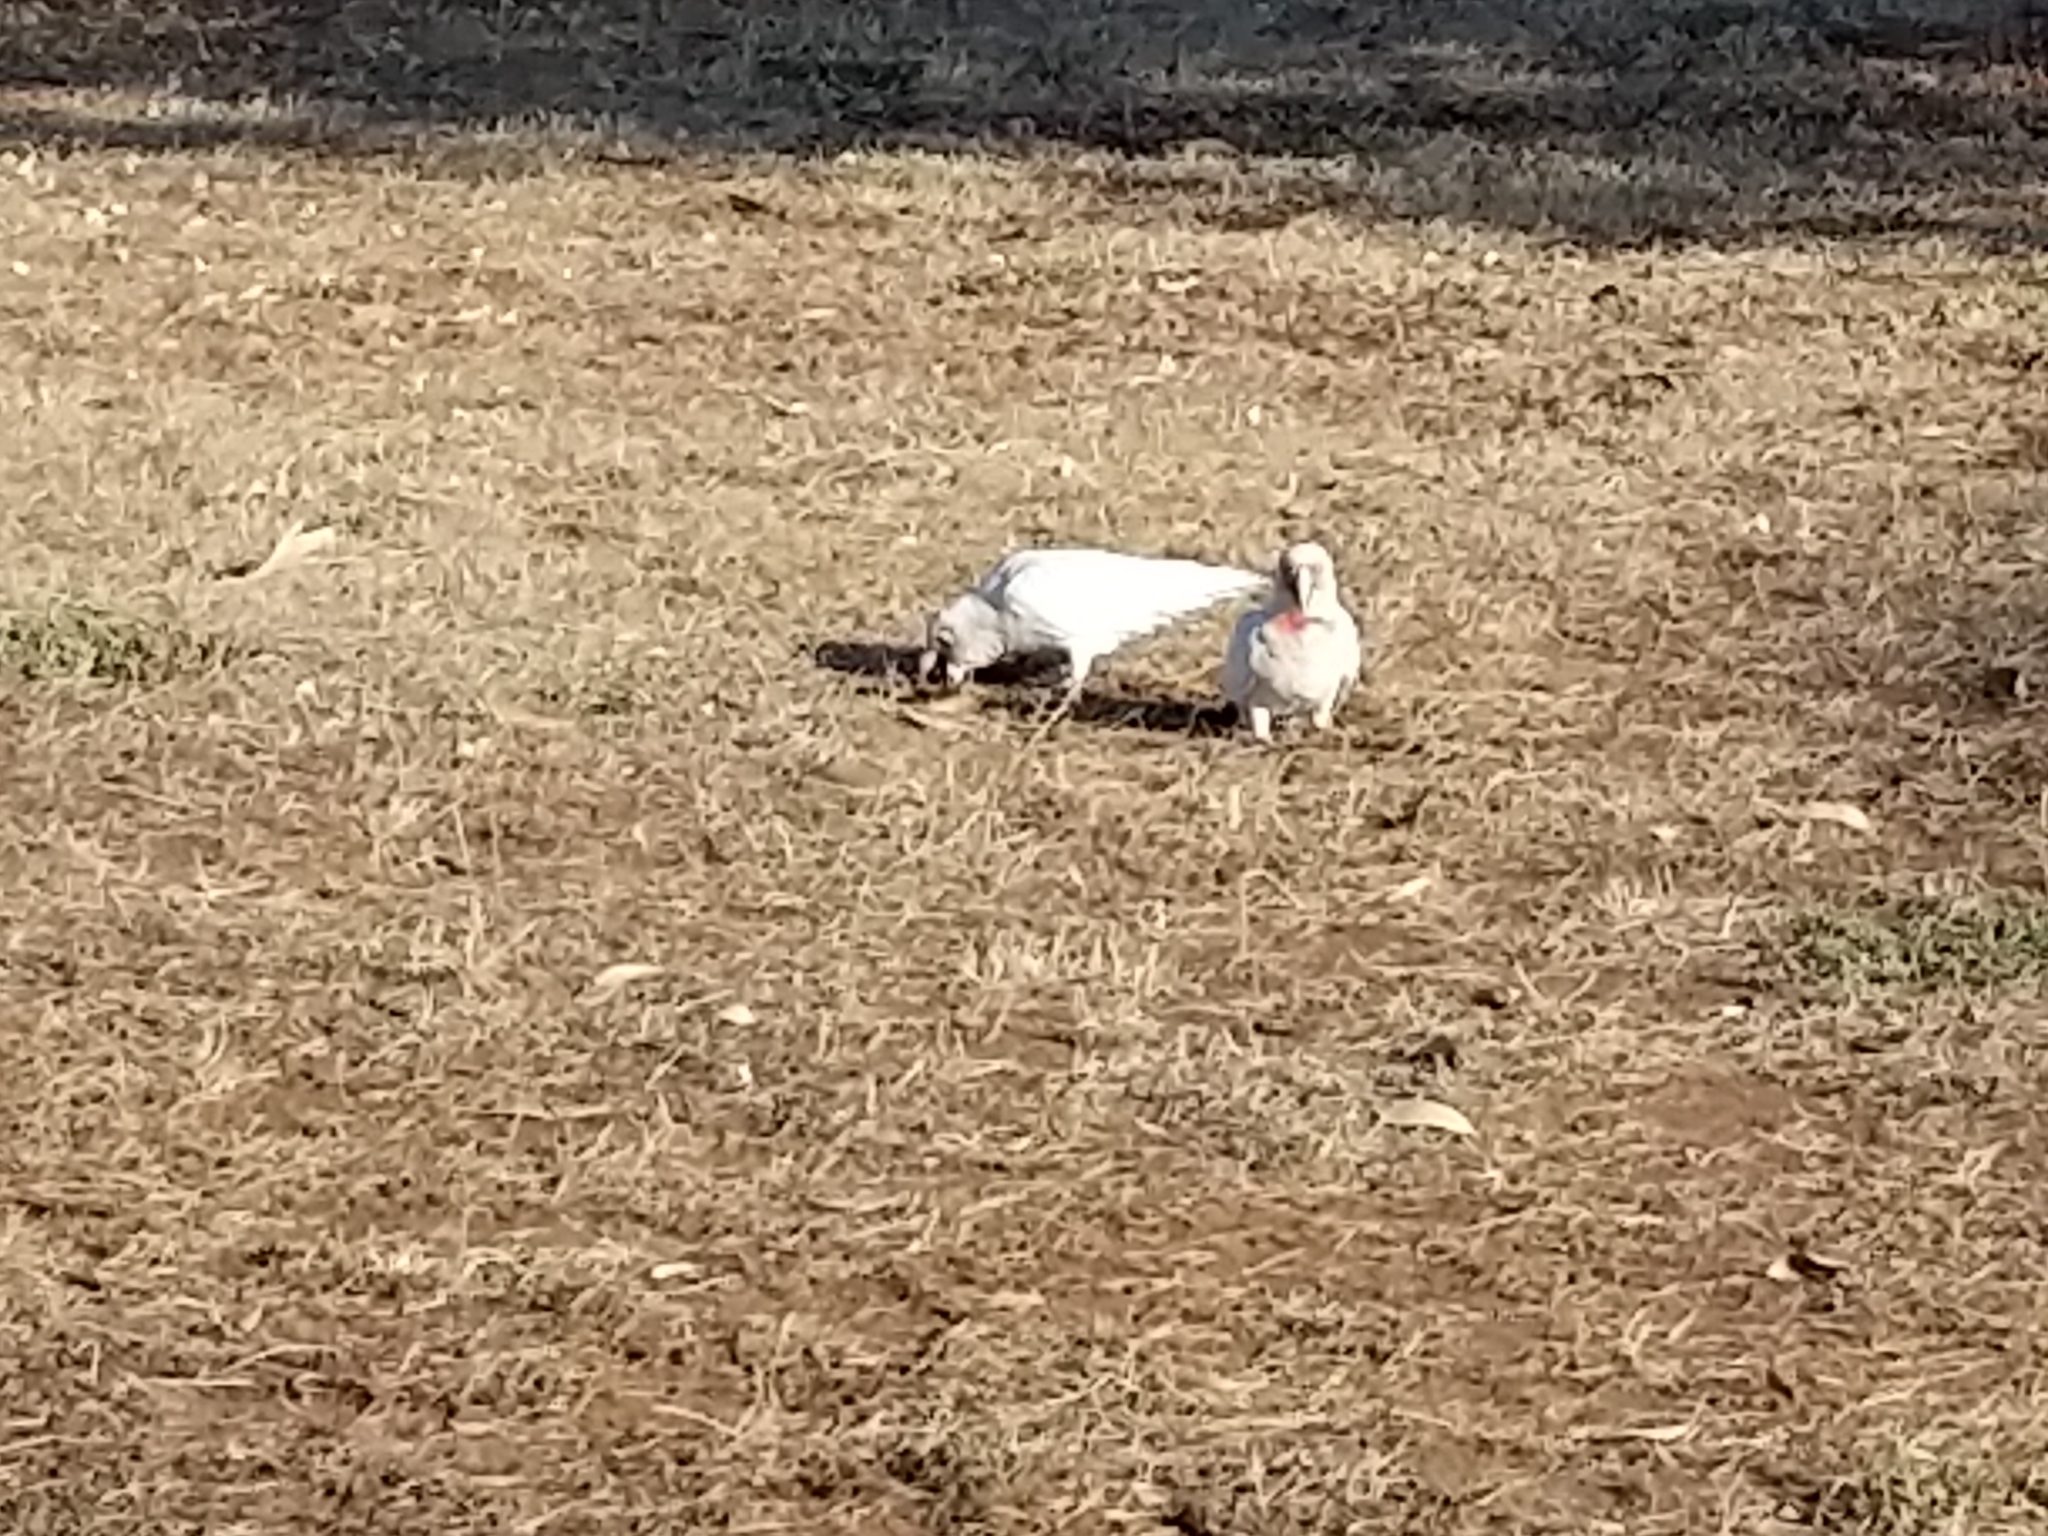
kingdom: Animalia
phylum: Chordata
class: Aves
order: Psittaciformes
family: Psittacidae
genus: Cacatua
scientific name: Cacatua tenuirostris
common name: Long-billed corella
